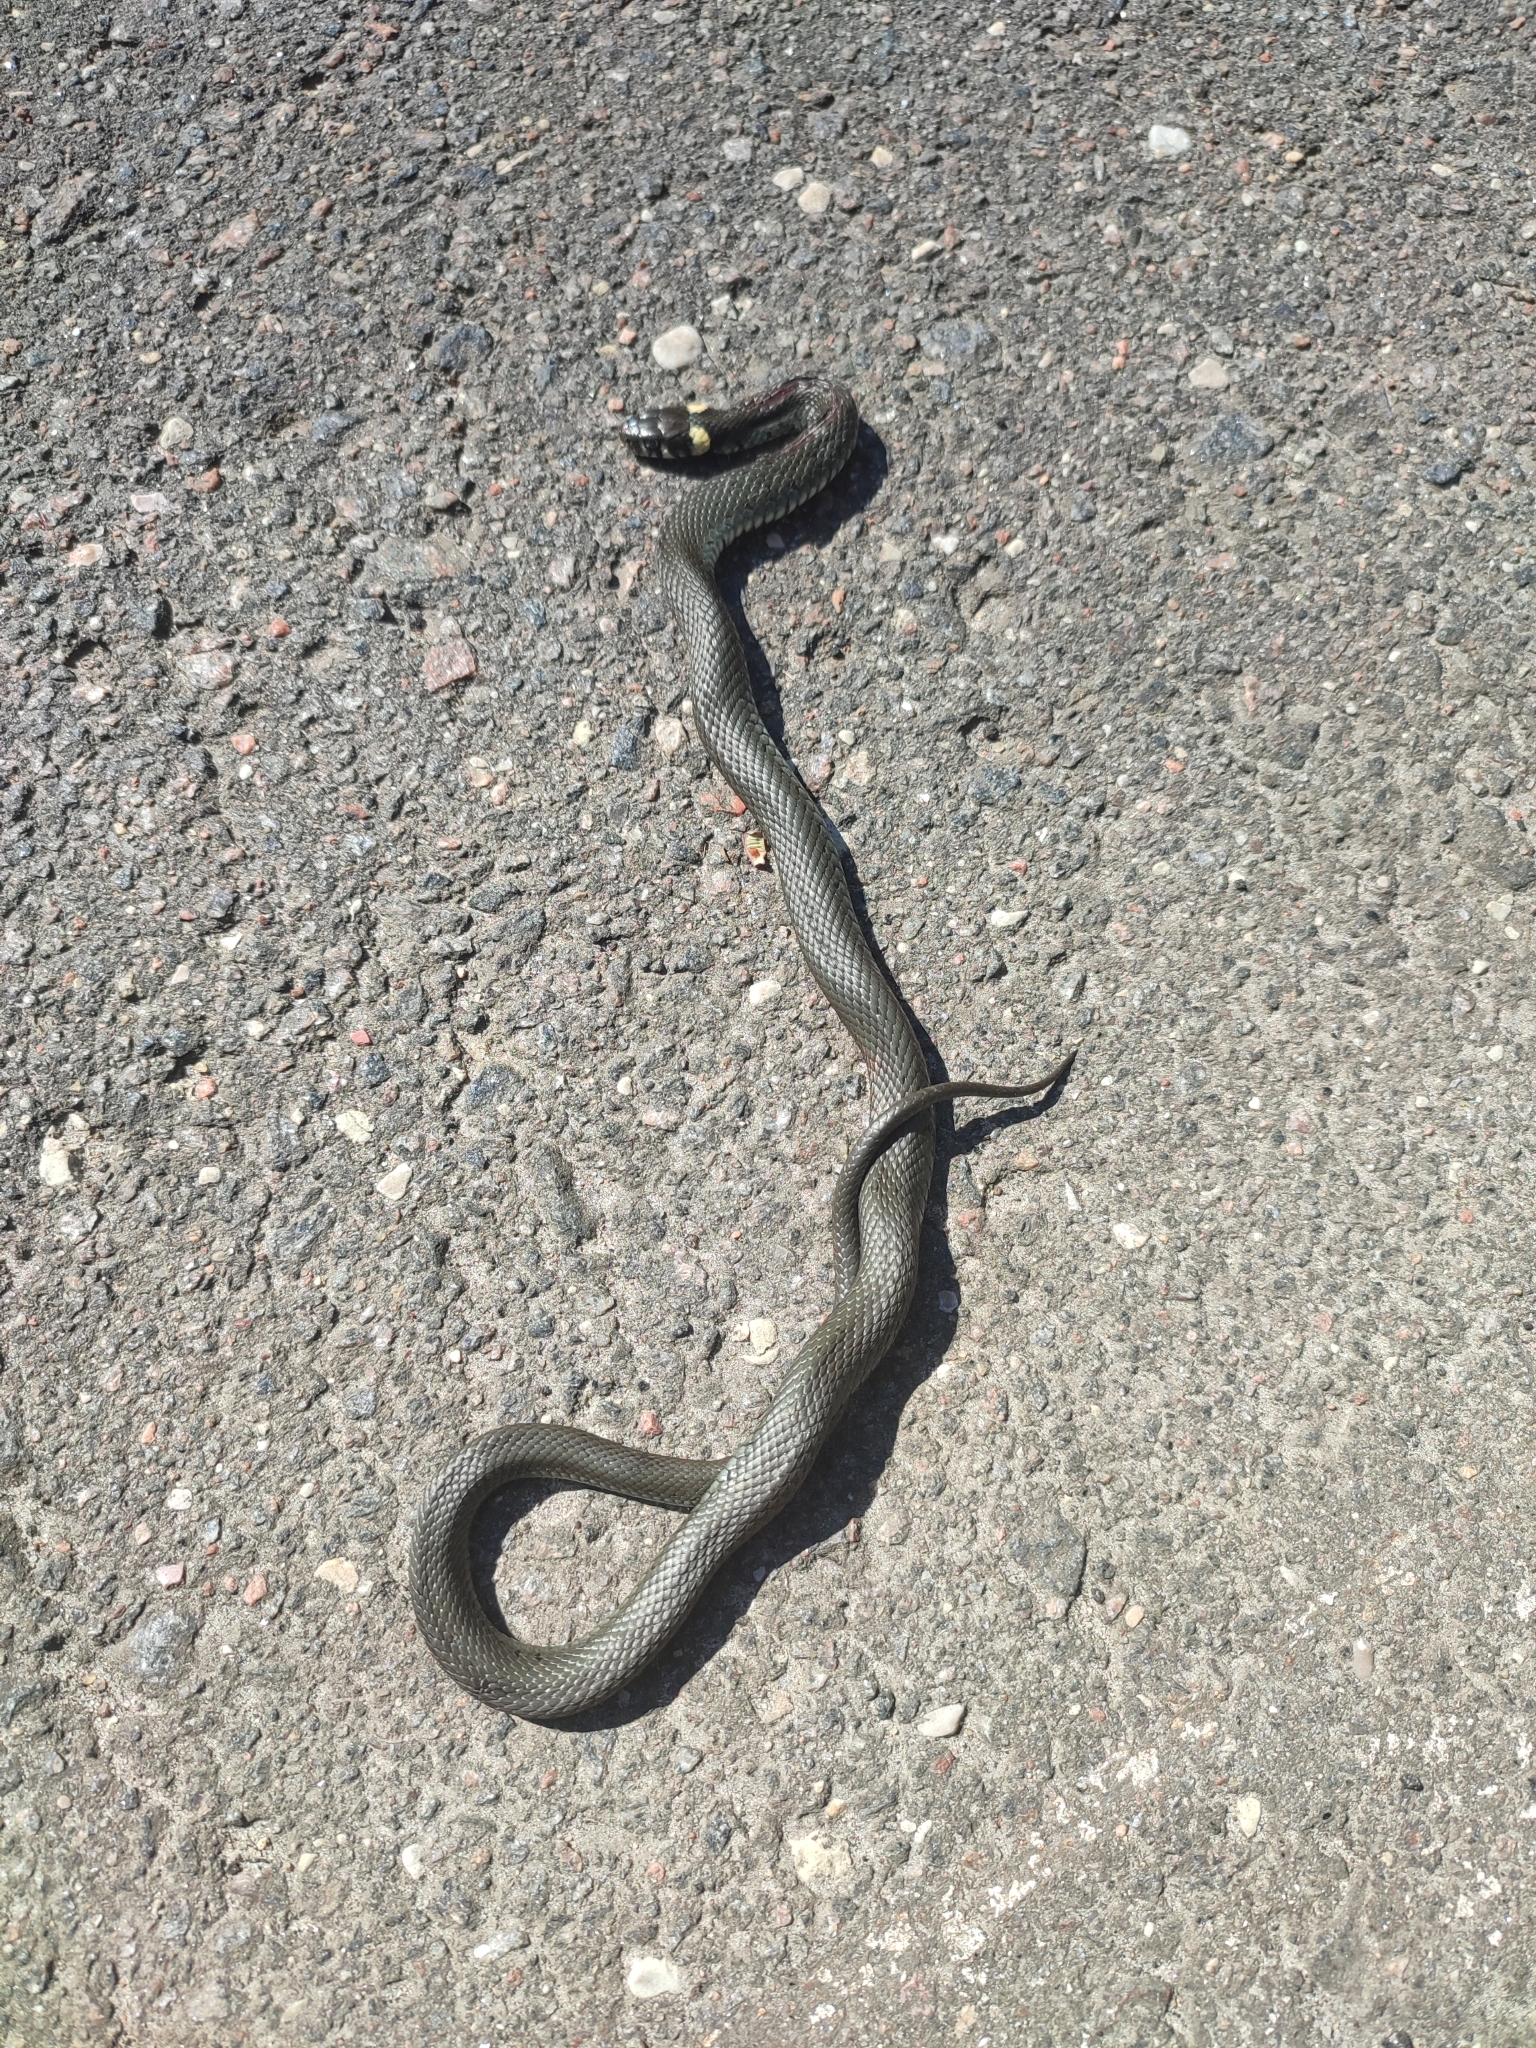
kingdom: Animalia
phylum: Chordata
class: Squamata
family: Colubridae
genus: Natrix
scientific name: Natrix natrix
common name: Grass snake
